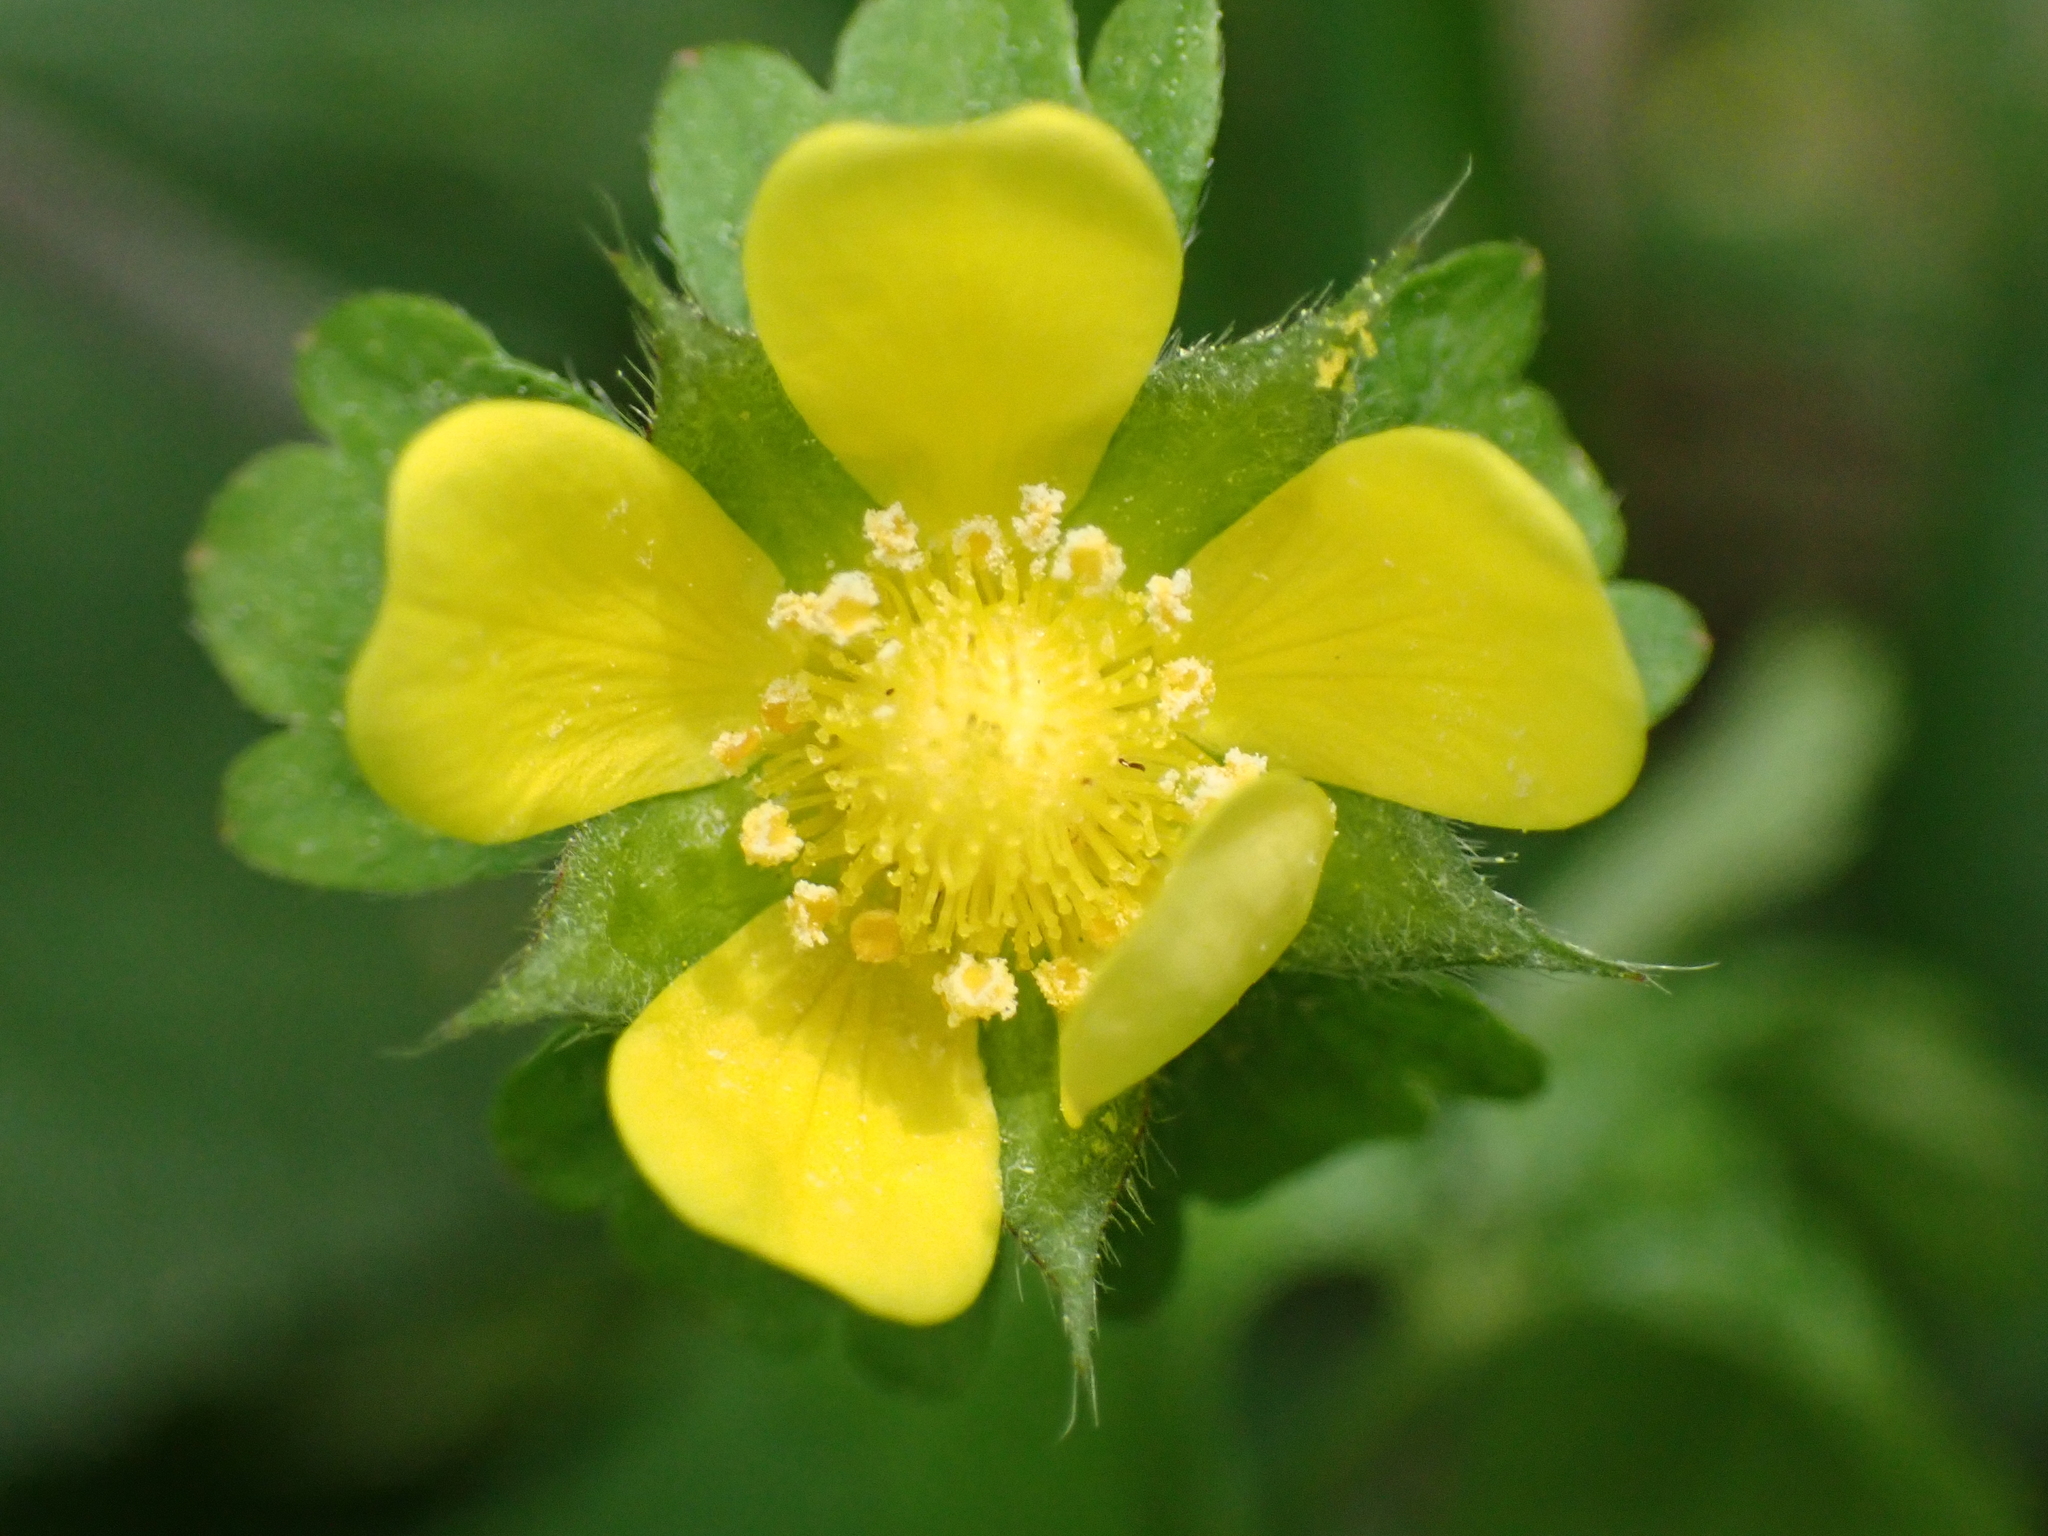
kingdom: Plantae
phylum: Tracheophyta
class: Magnoliopsida
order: Rosales
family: Rosaceae
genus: Potentilla
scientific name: Potentilla indica
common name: Yellow-flowered strawberry
